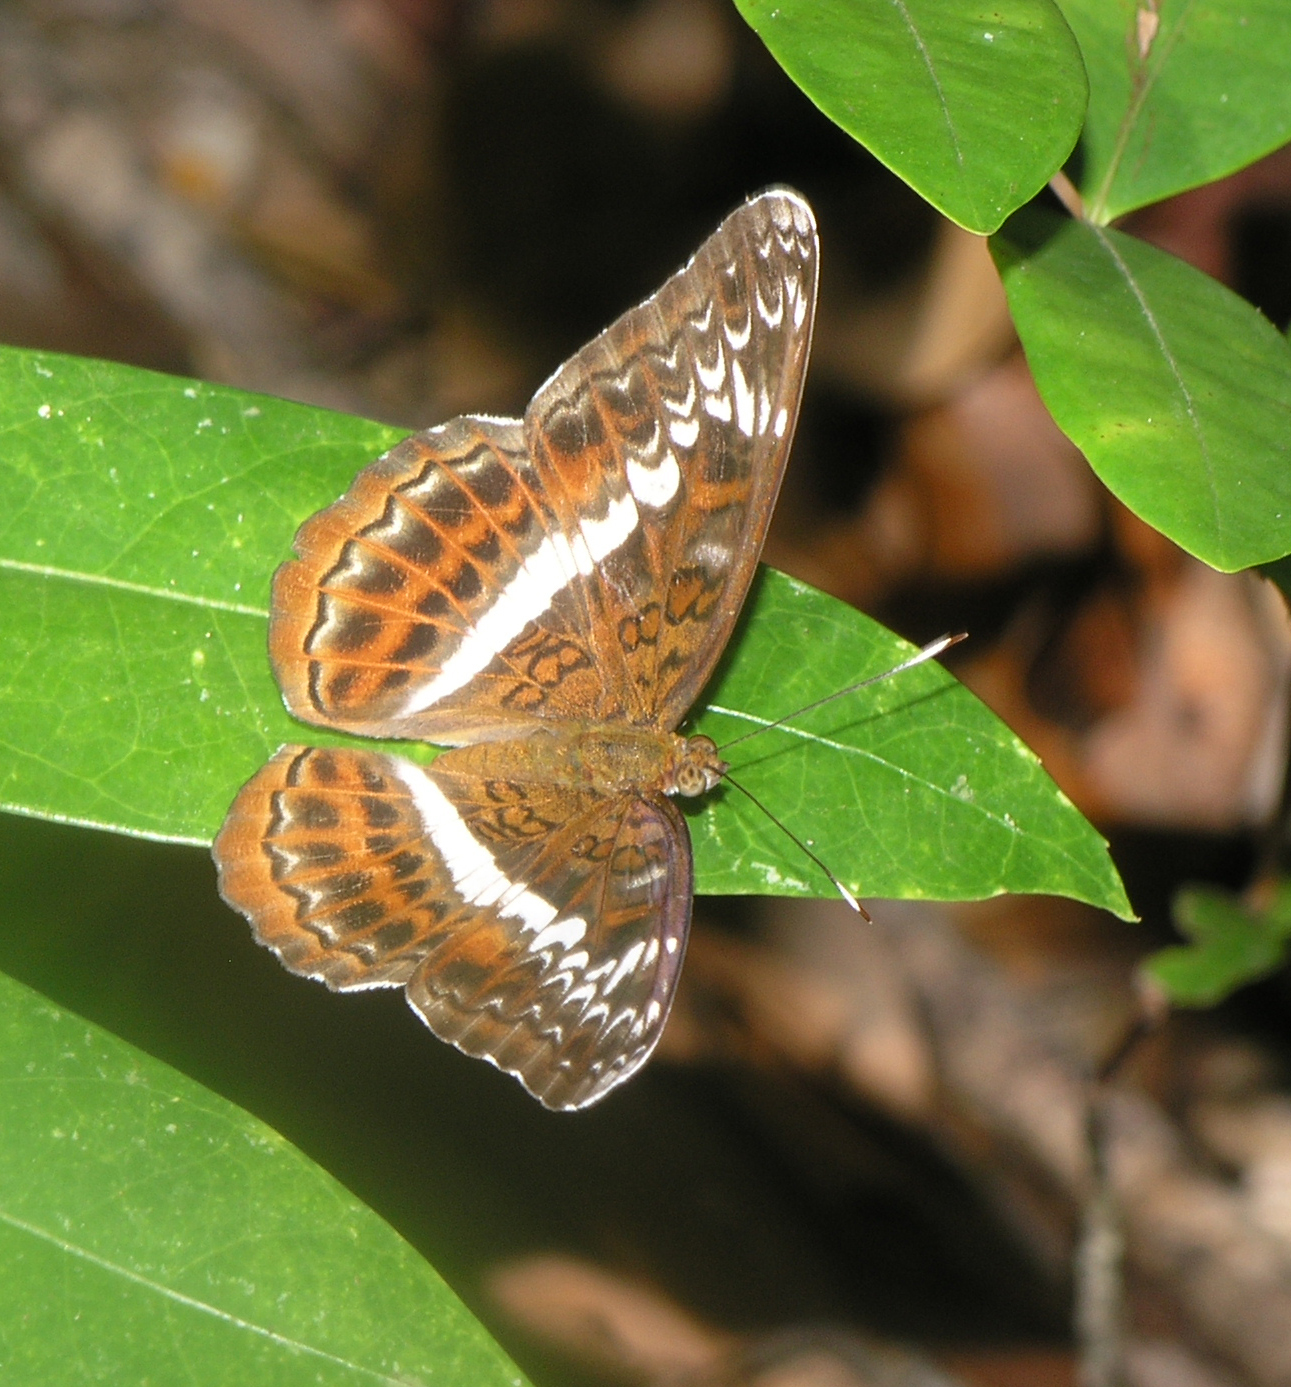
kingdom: Animalia
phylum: Arthropoda
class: Insecta
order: Lepidoptera
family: Nymphalidae
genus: Lebadea
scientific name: Lebadea martha
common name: Knight
